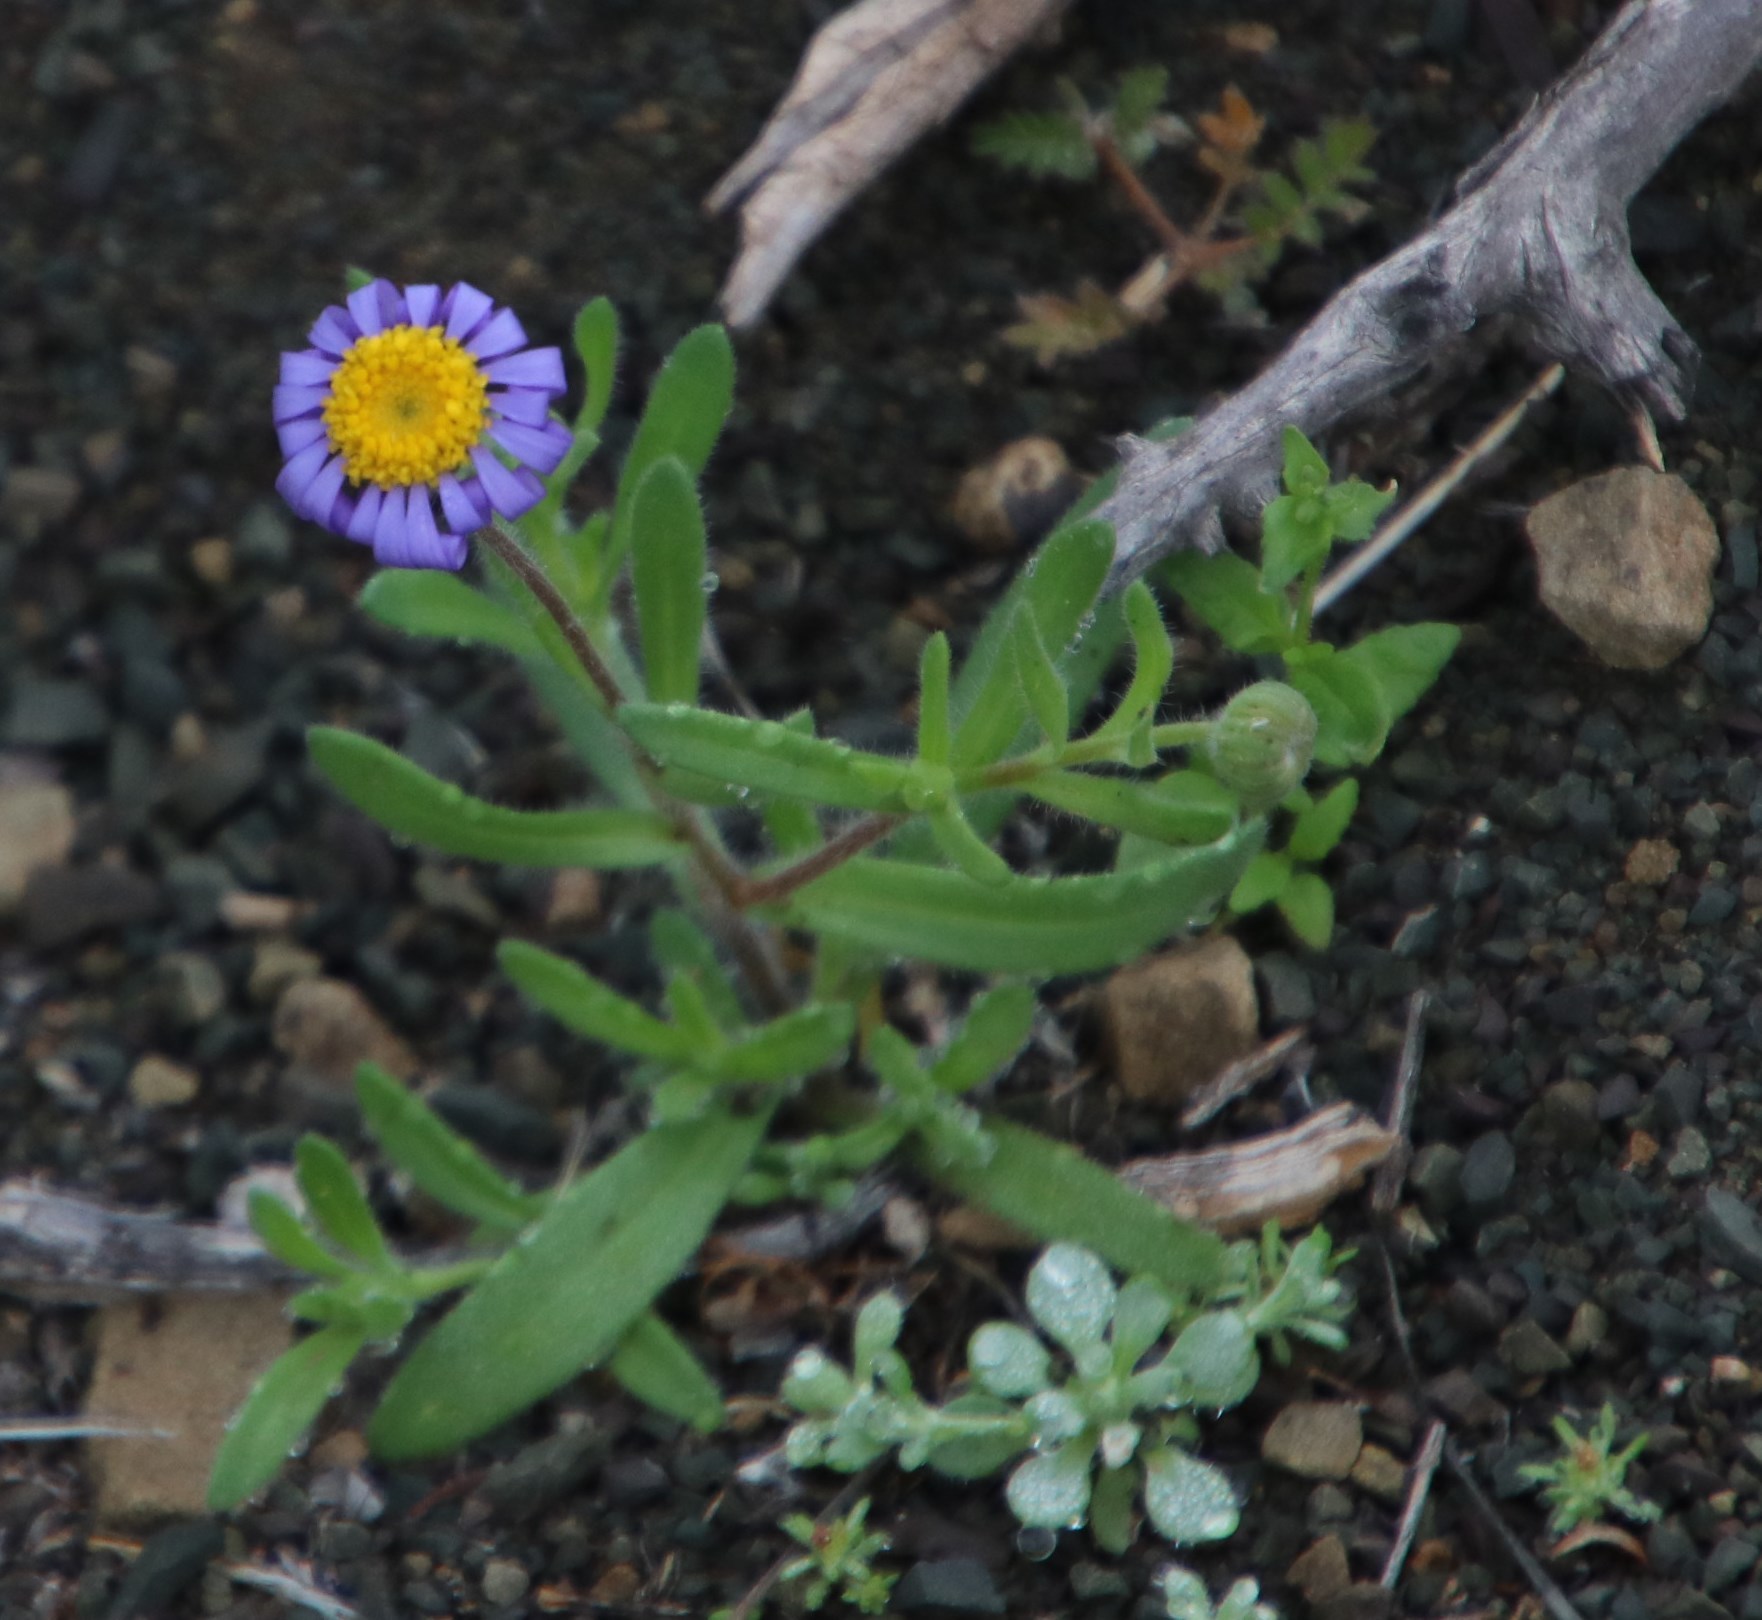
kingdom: Plantae
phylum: Tracheophyta
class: Magnoliopsida
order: Asterales
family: Asteraceae
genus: Felicia
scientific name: Felicia namaquana
